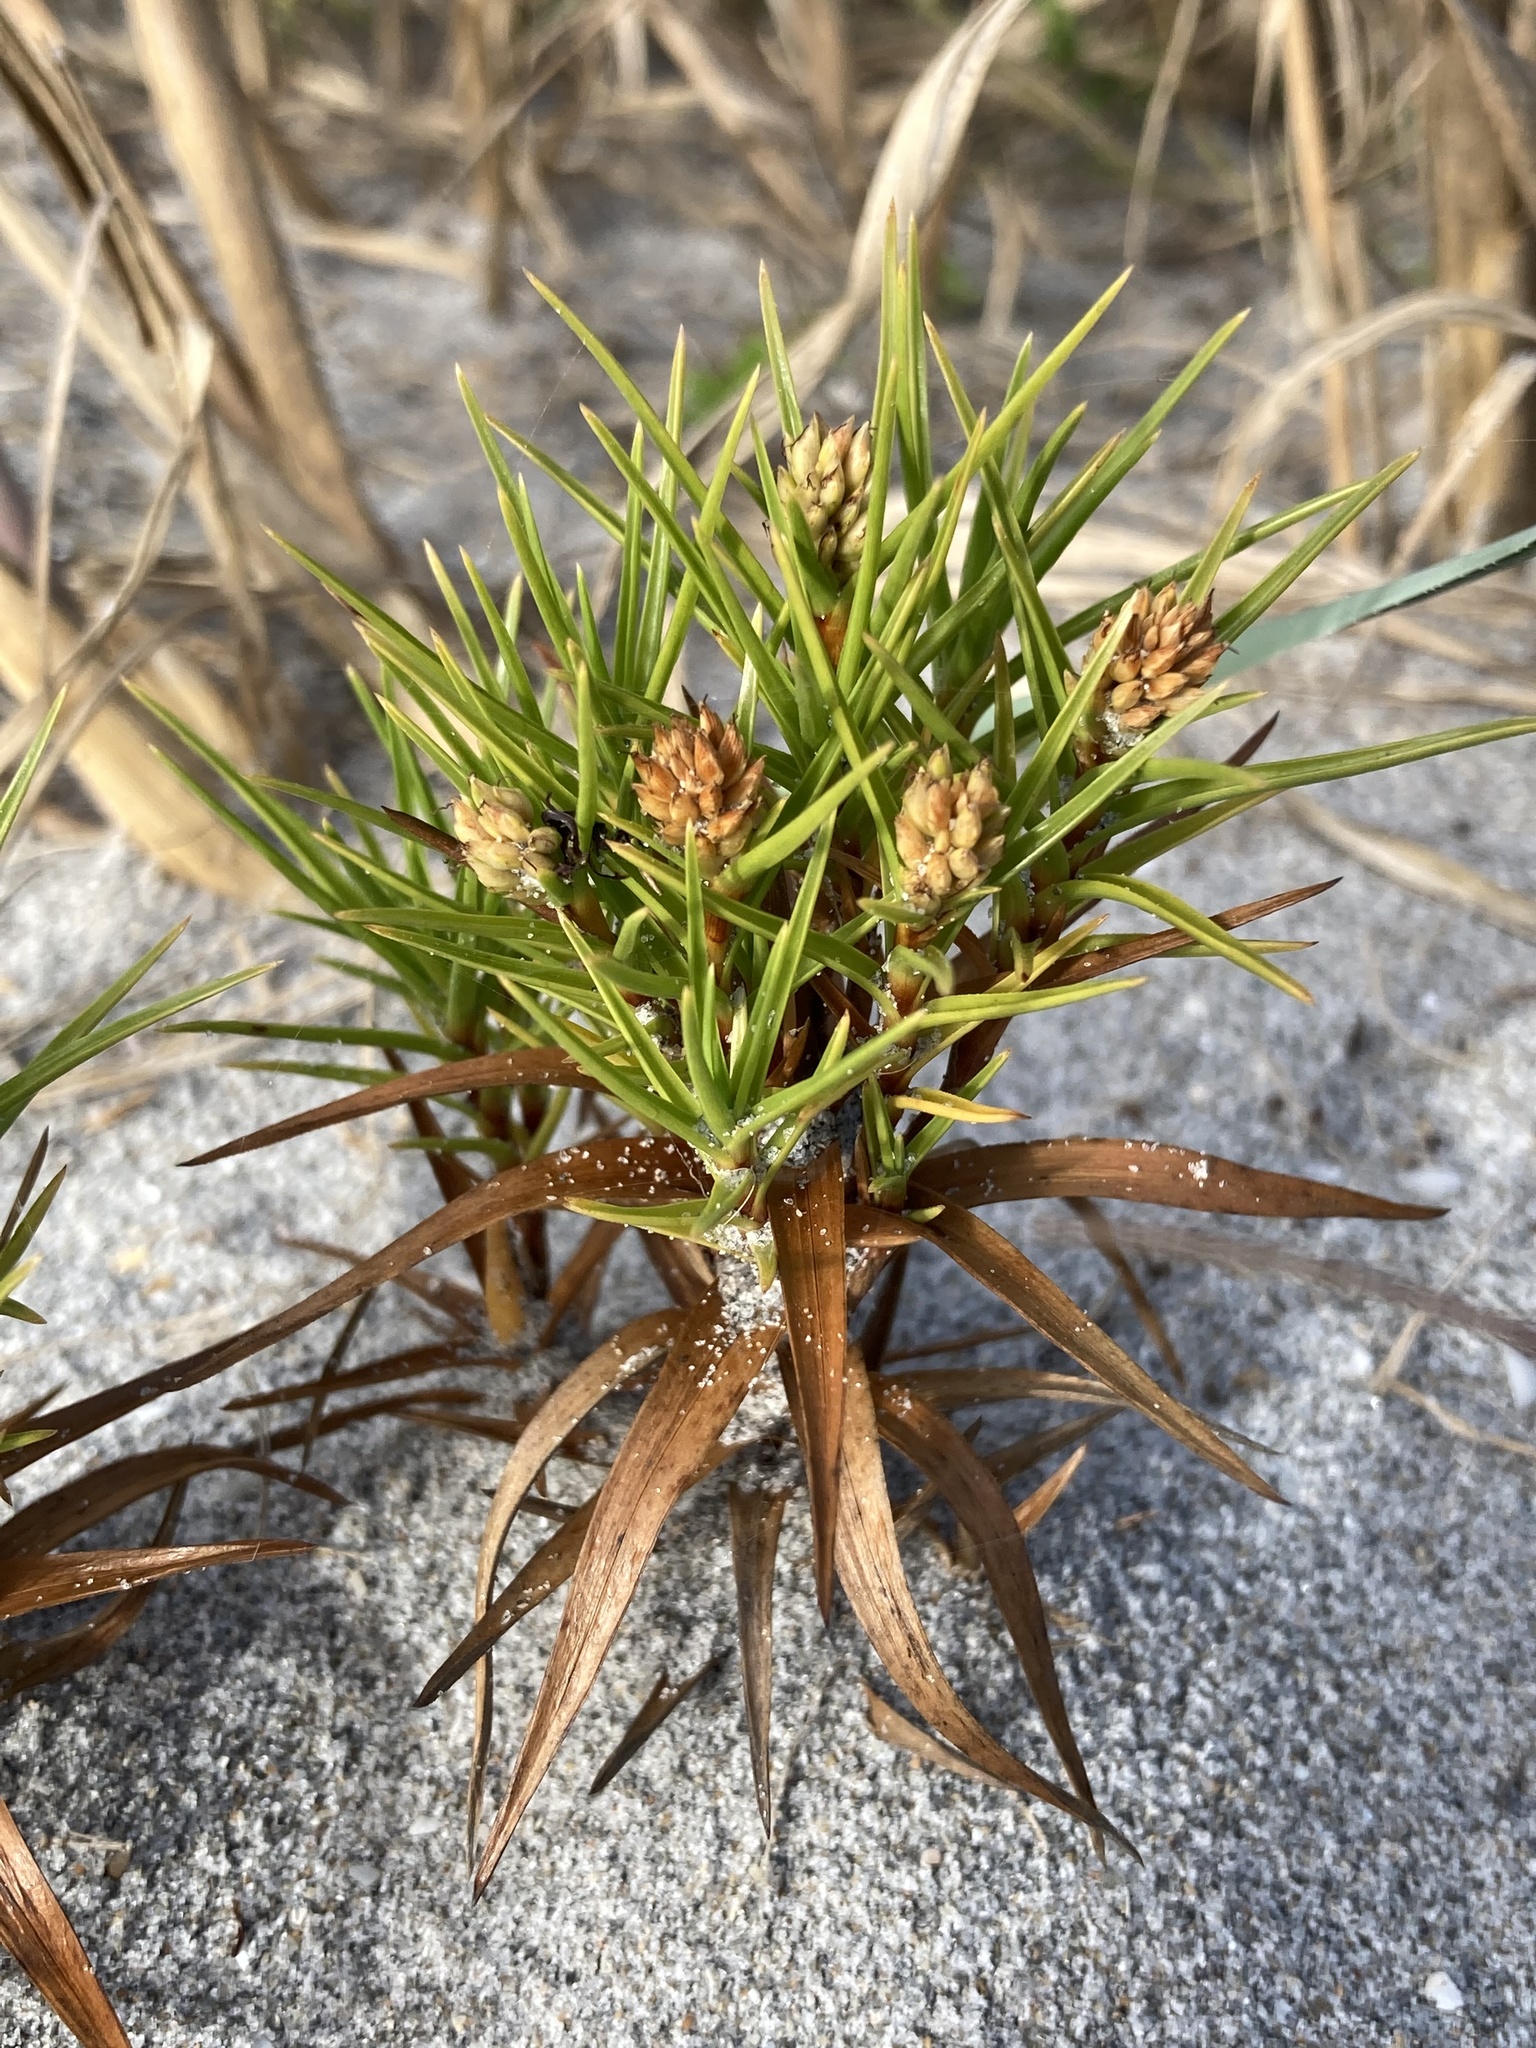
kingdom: Plantae
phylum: Tracheophyta
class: Liliopsida
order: Poales
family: Cyperaceae
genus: Cyperus
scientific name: Cyperus pedunculatus
